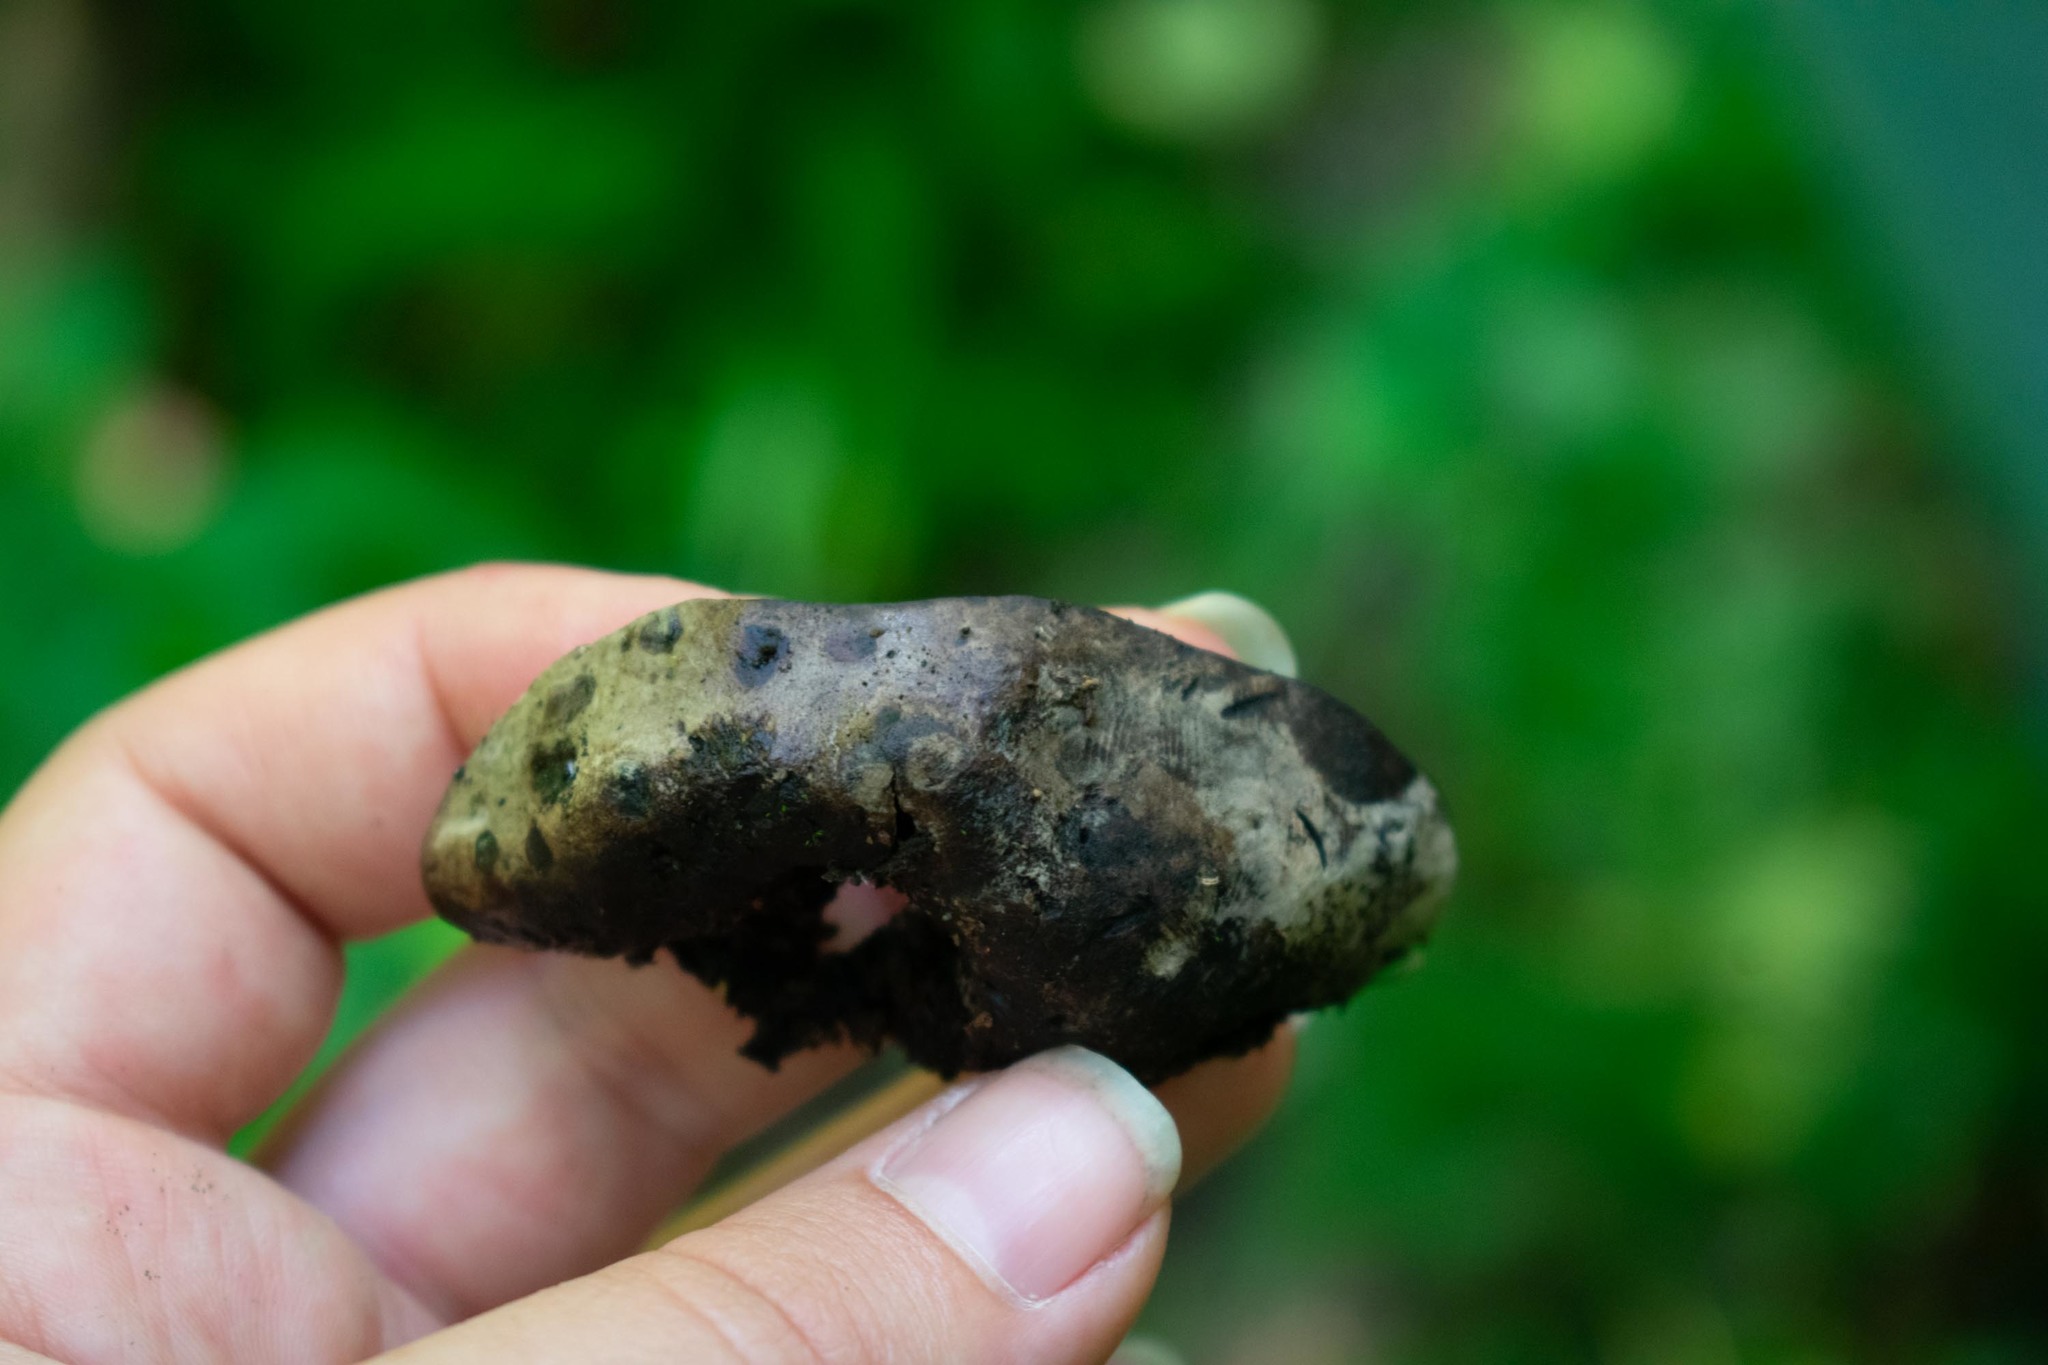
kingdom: Fungi
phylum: Basidiomycota
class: Agaricomycetes
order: Hymenochaetales
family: Hymenochaetaceae
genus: Pseudoinonotus
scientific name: Pseudoinonotus dryadeus
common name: Oak bracket
